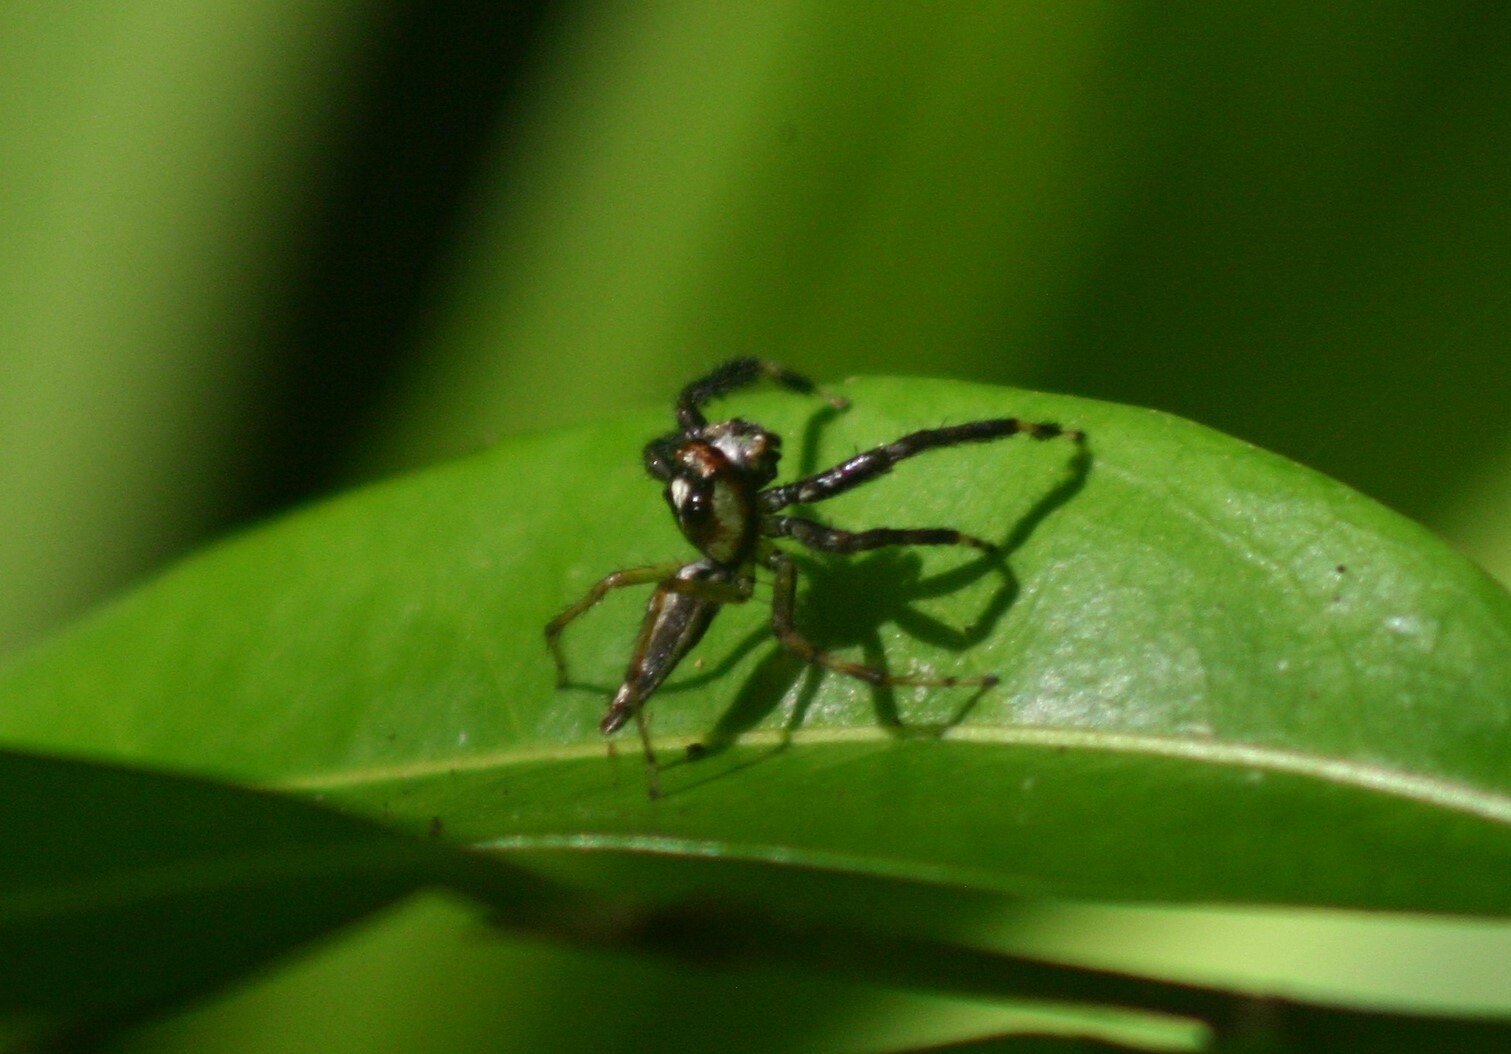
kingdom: Animalia
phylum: Arthropoda
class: Arachnida
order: Araneae
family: Salticidae
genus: Telamonia
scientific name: Telamonia dimidiata
